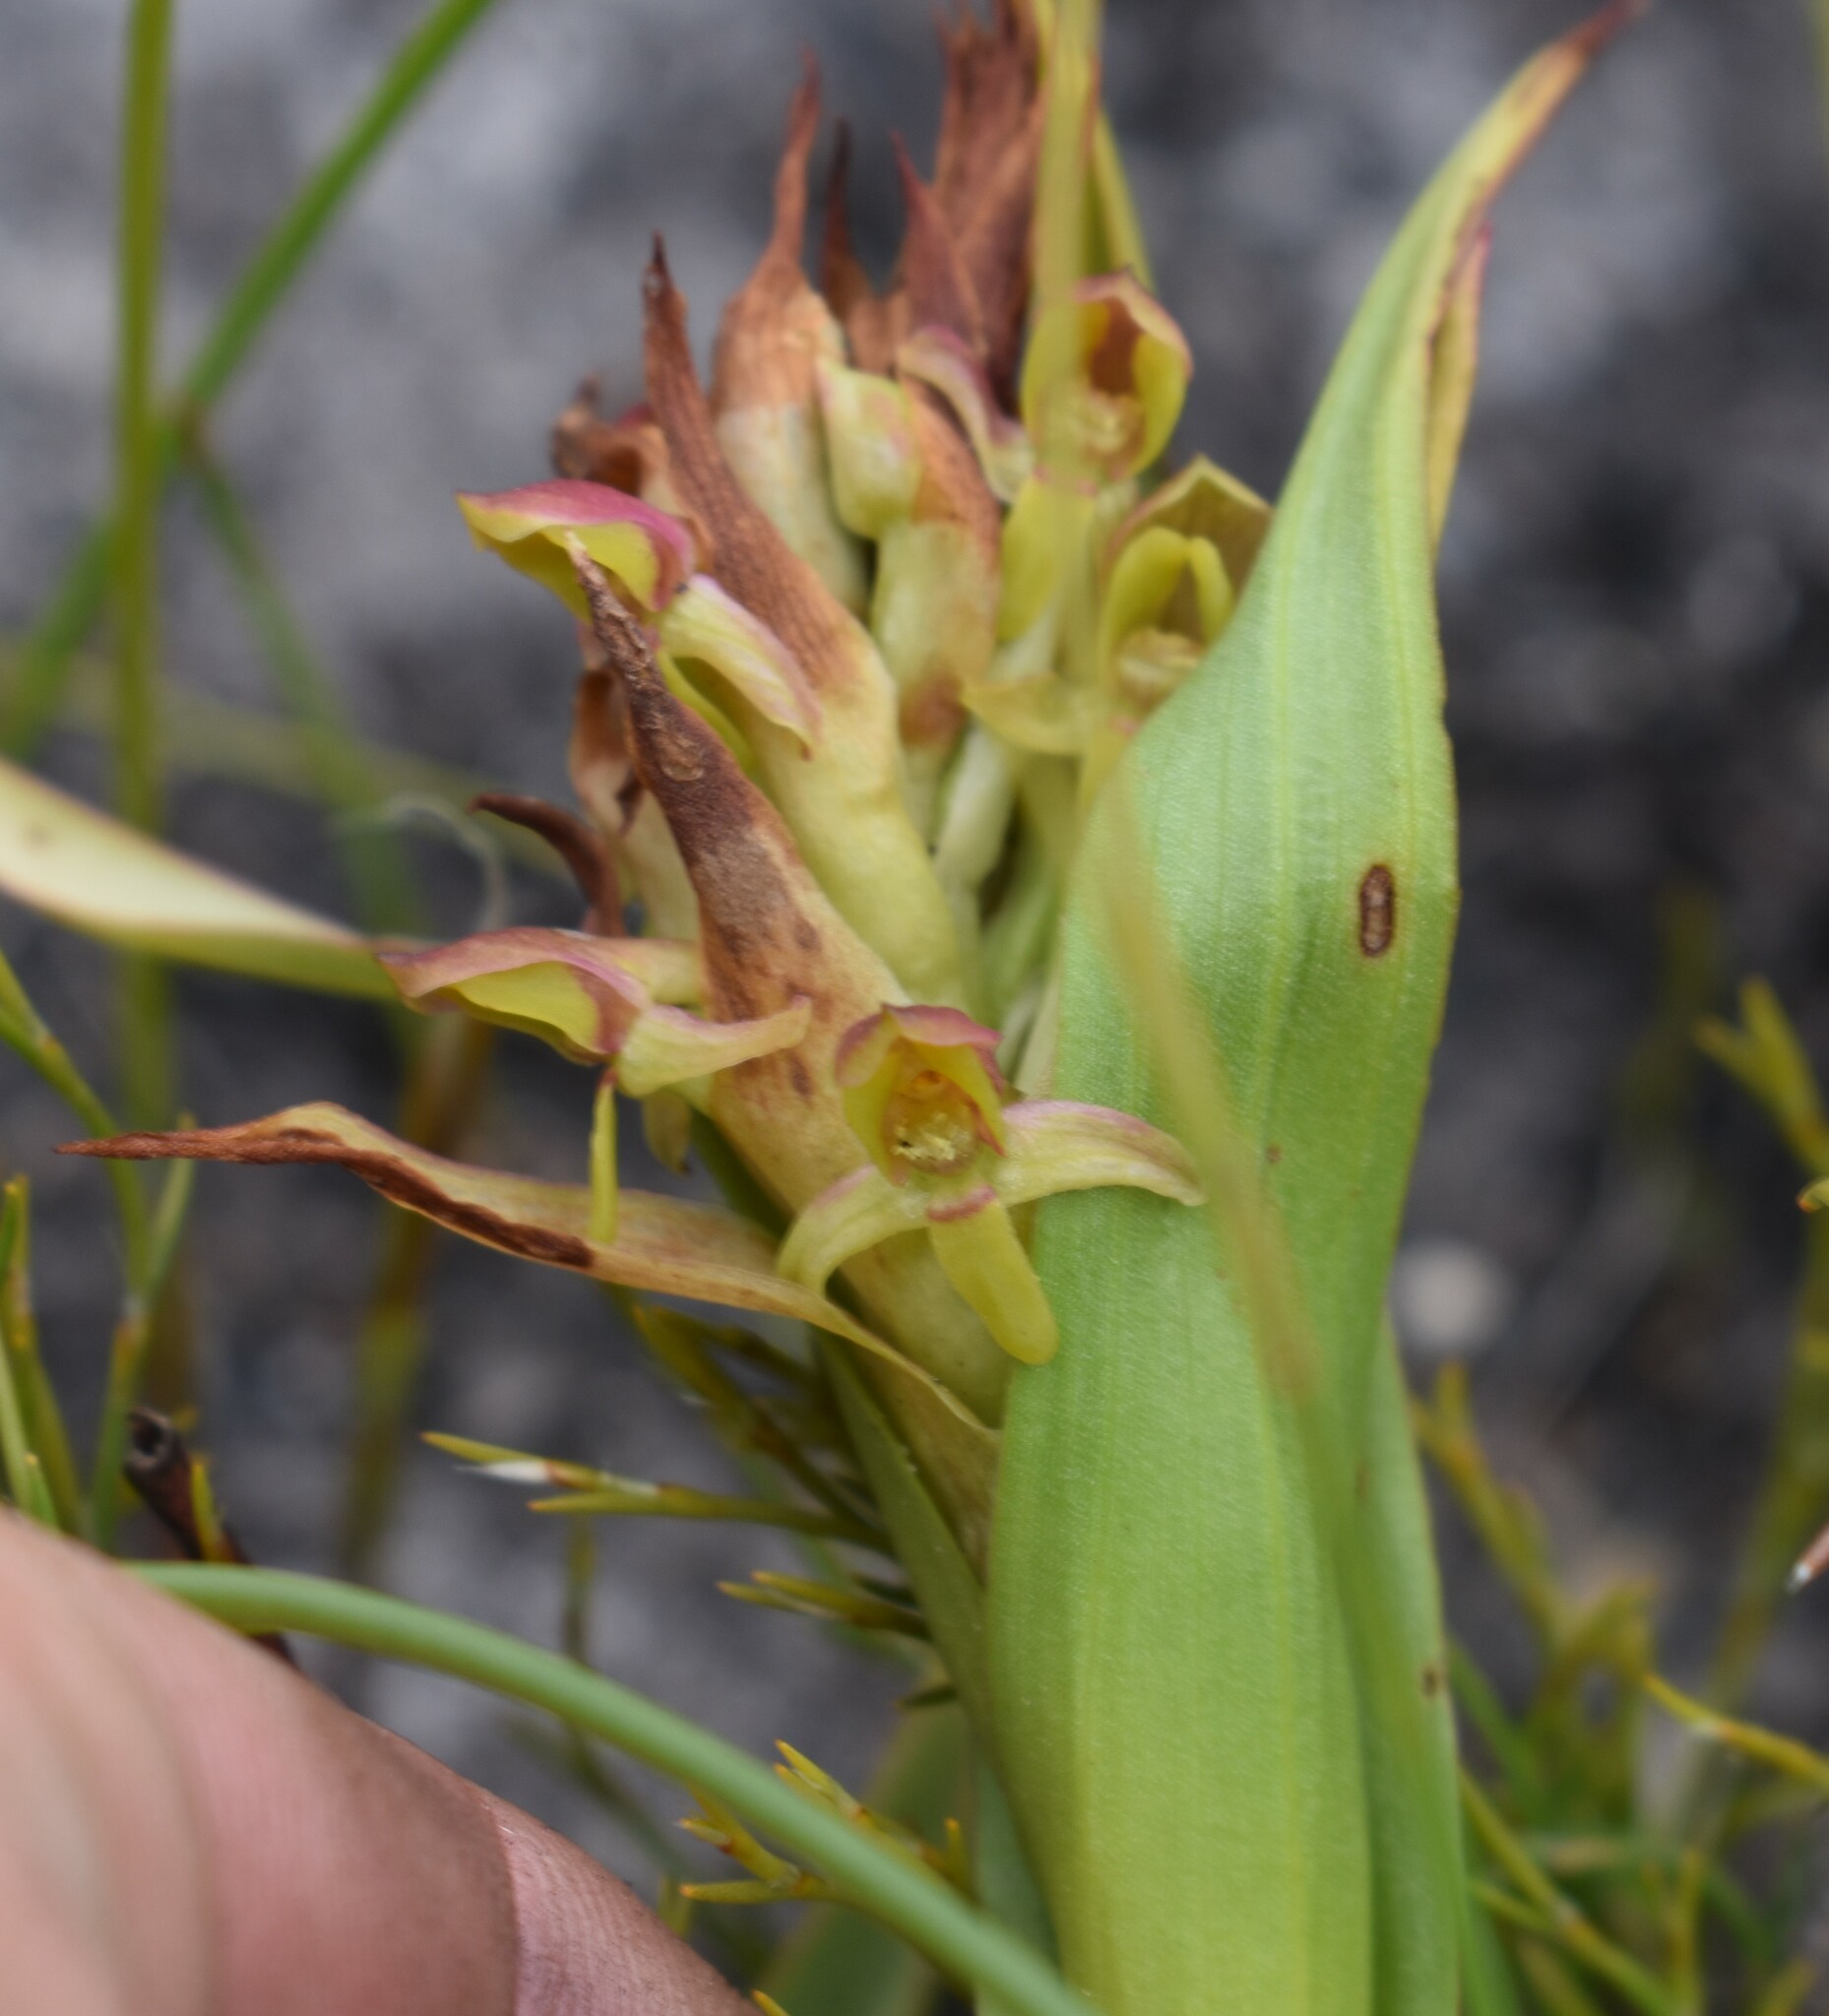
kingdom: Plantae
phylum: Tracheophyta
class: Liliopsida
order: Asparagales
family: Orchidaceae
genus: Disa
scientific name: Disa reticulata
